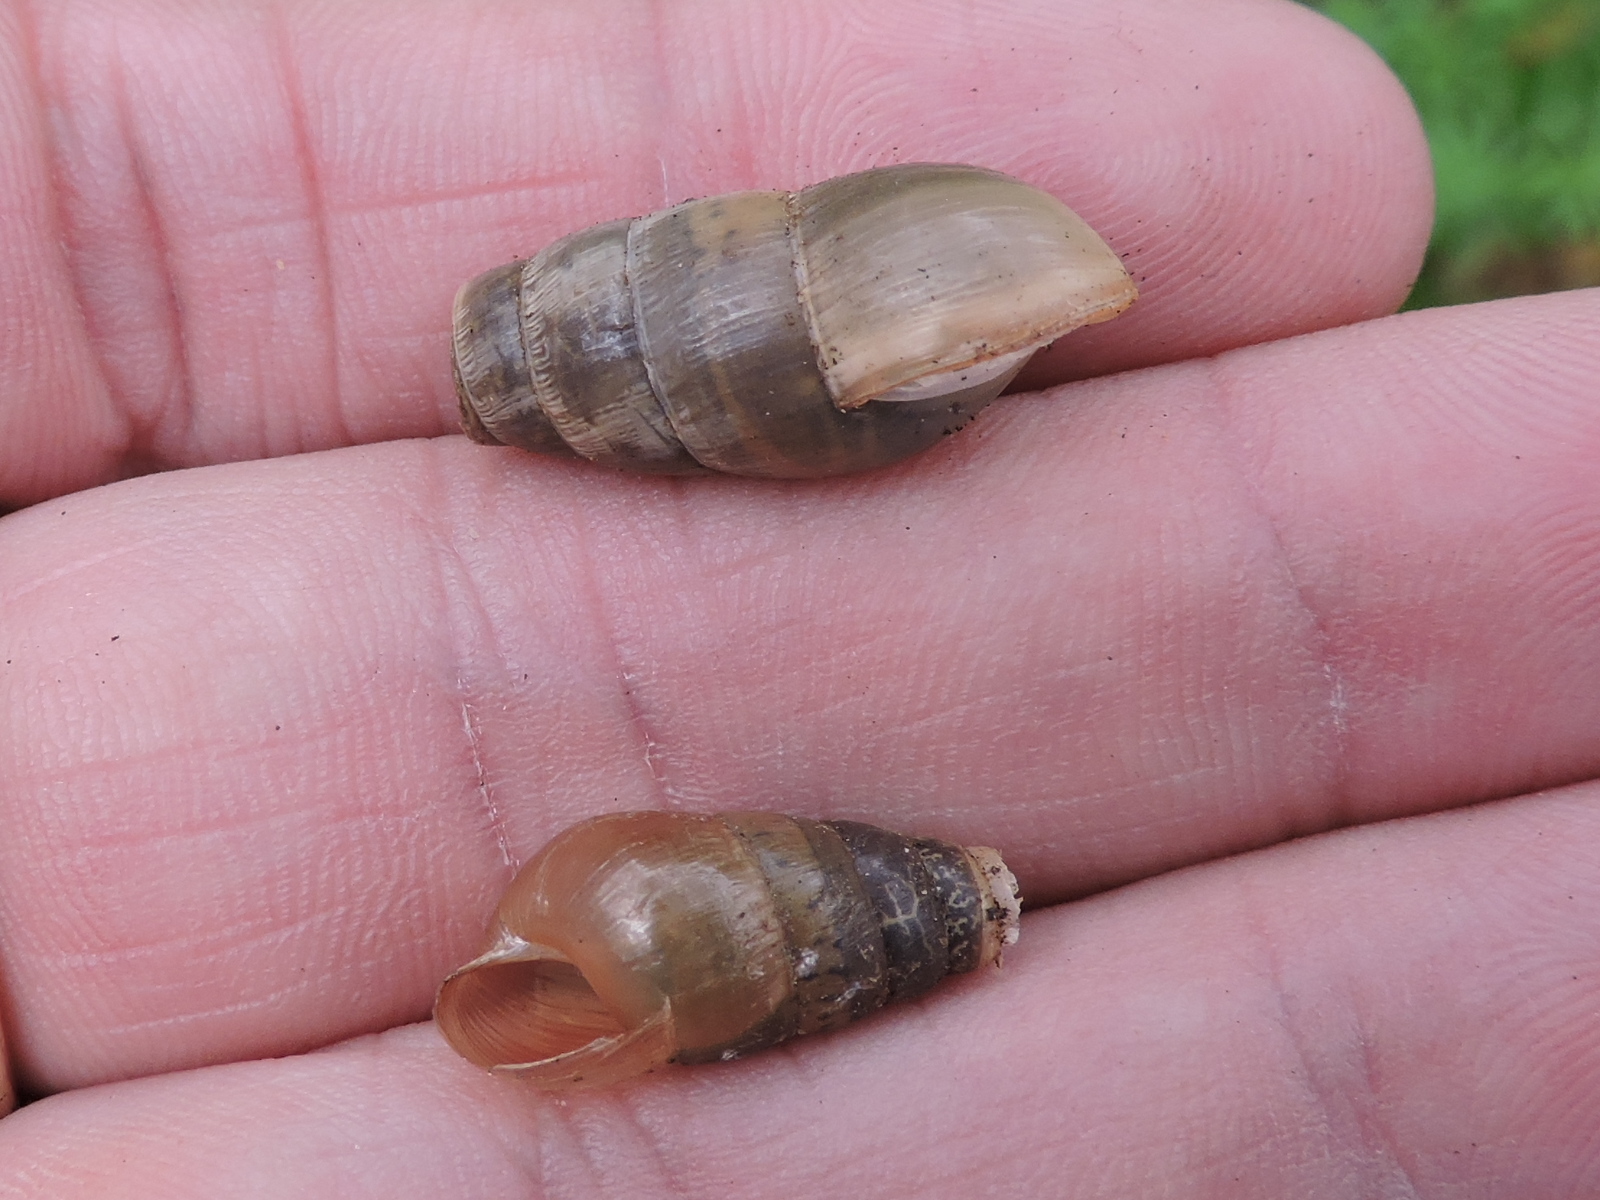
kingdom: Animalia
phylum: Mollusca
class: Gastropoda
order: Stylommatophora
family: Achatinidae
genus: Rumina
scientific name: Rumina decollata
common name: Decollate snail
